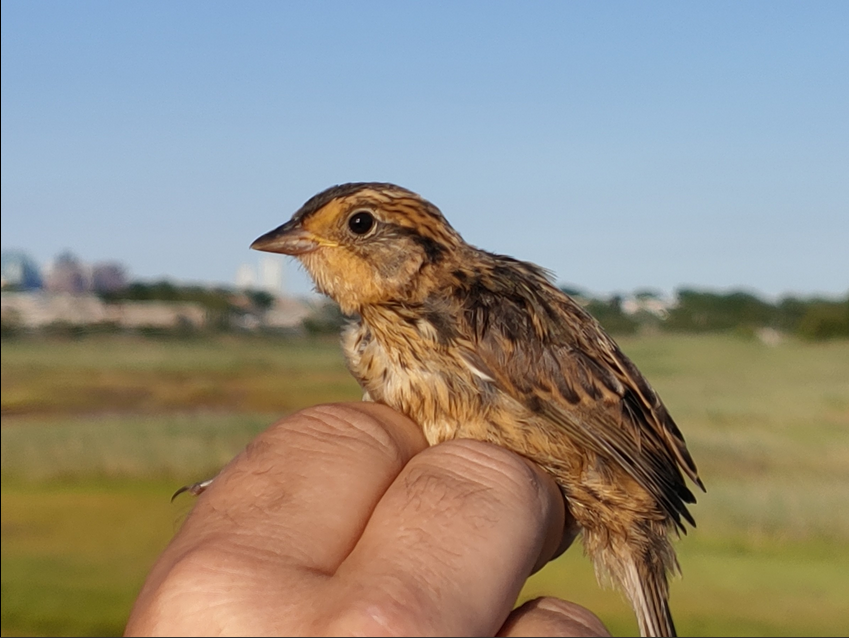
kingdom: Animalia
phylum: Chordata
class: Aves
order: Passeriformes
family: Passerellidae
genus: Ammospiza
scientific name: Ammospiza caudacuta
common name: Saltmarsh sparrow
